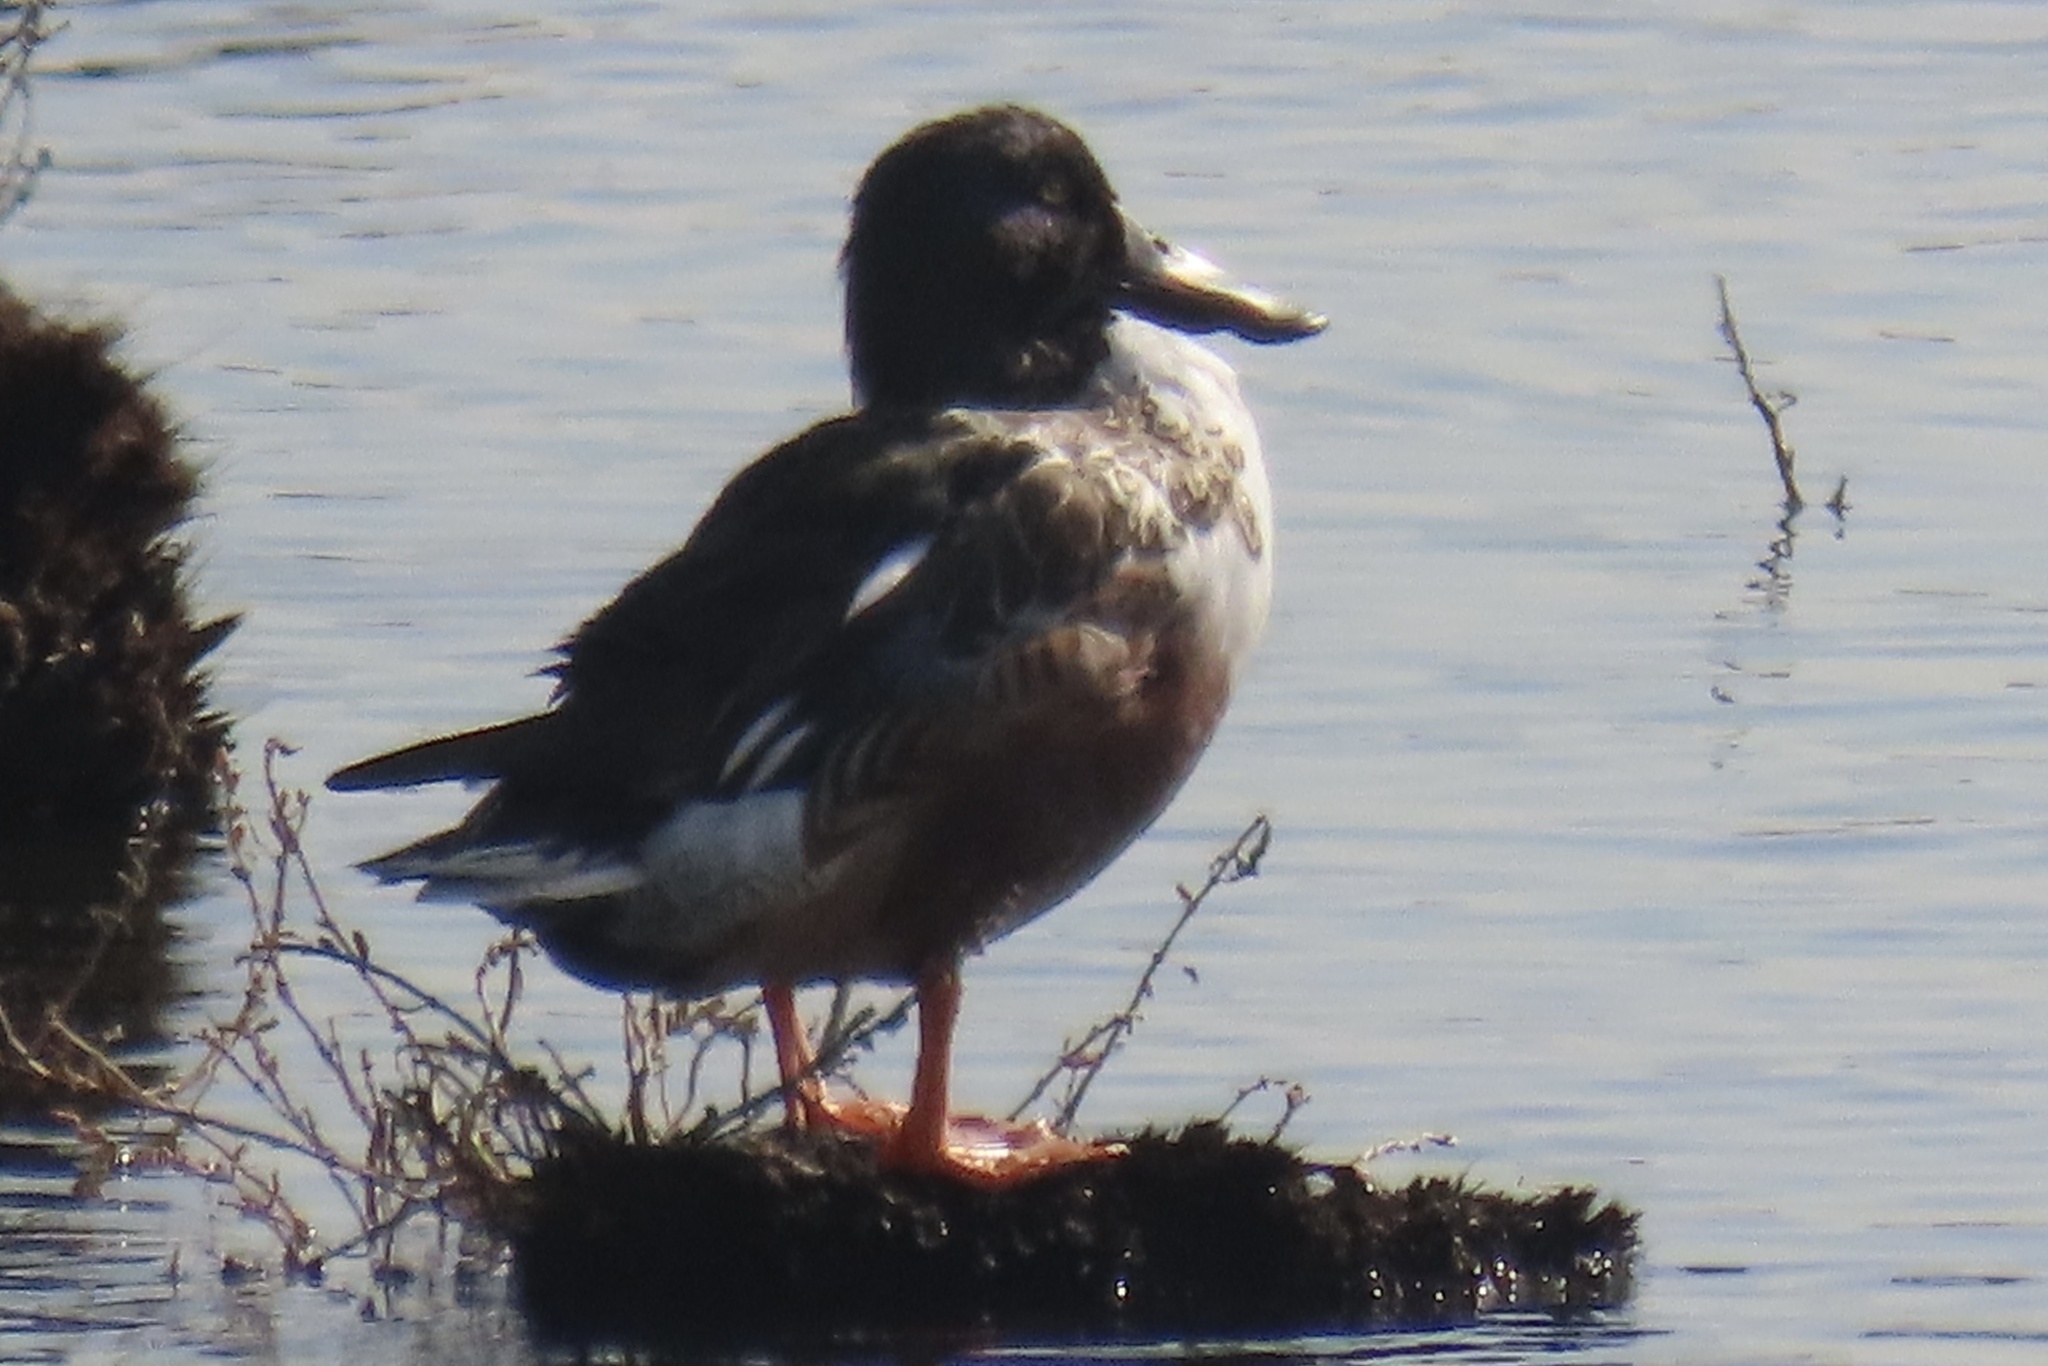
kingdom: Animalia
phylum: Chordata
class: Aves
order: Anseriformes
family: Anatidae
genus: Spatula
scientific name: Spatula clypeata
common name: Northern shoveler
